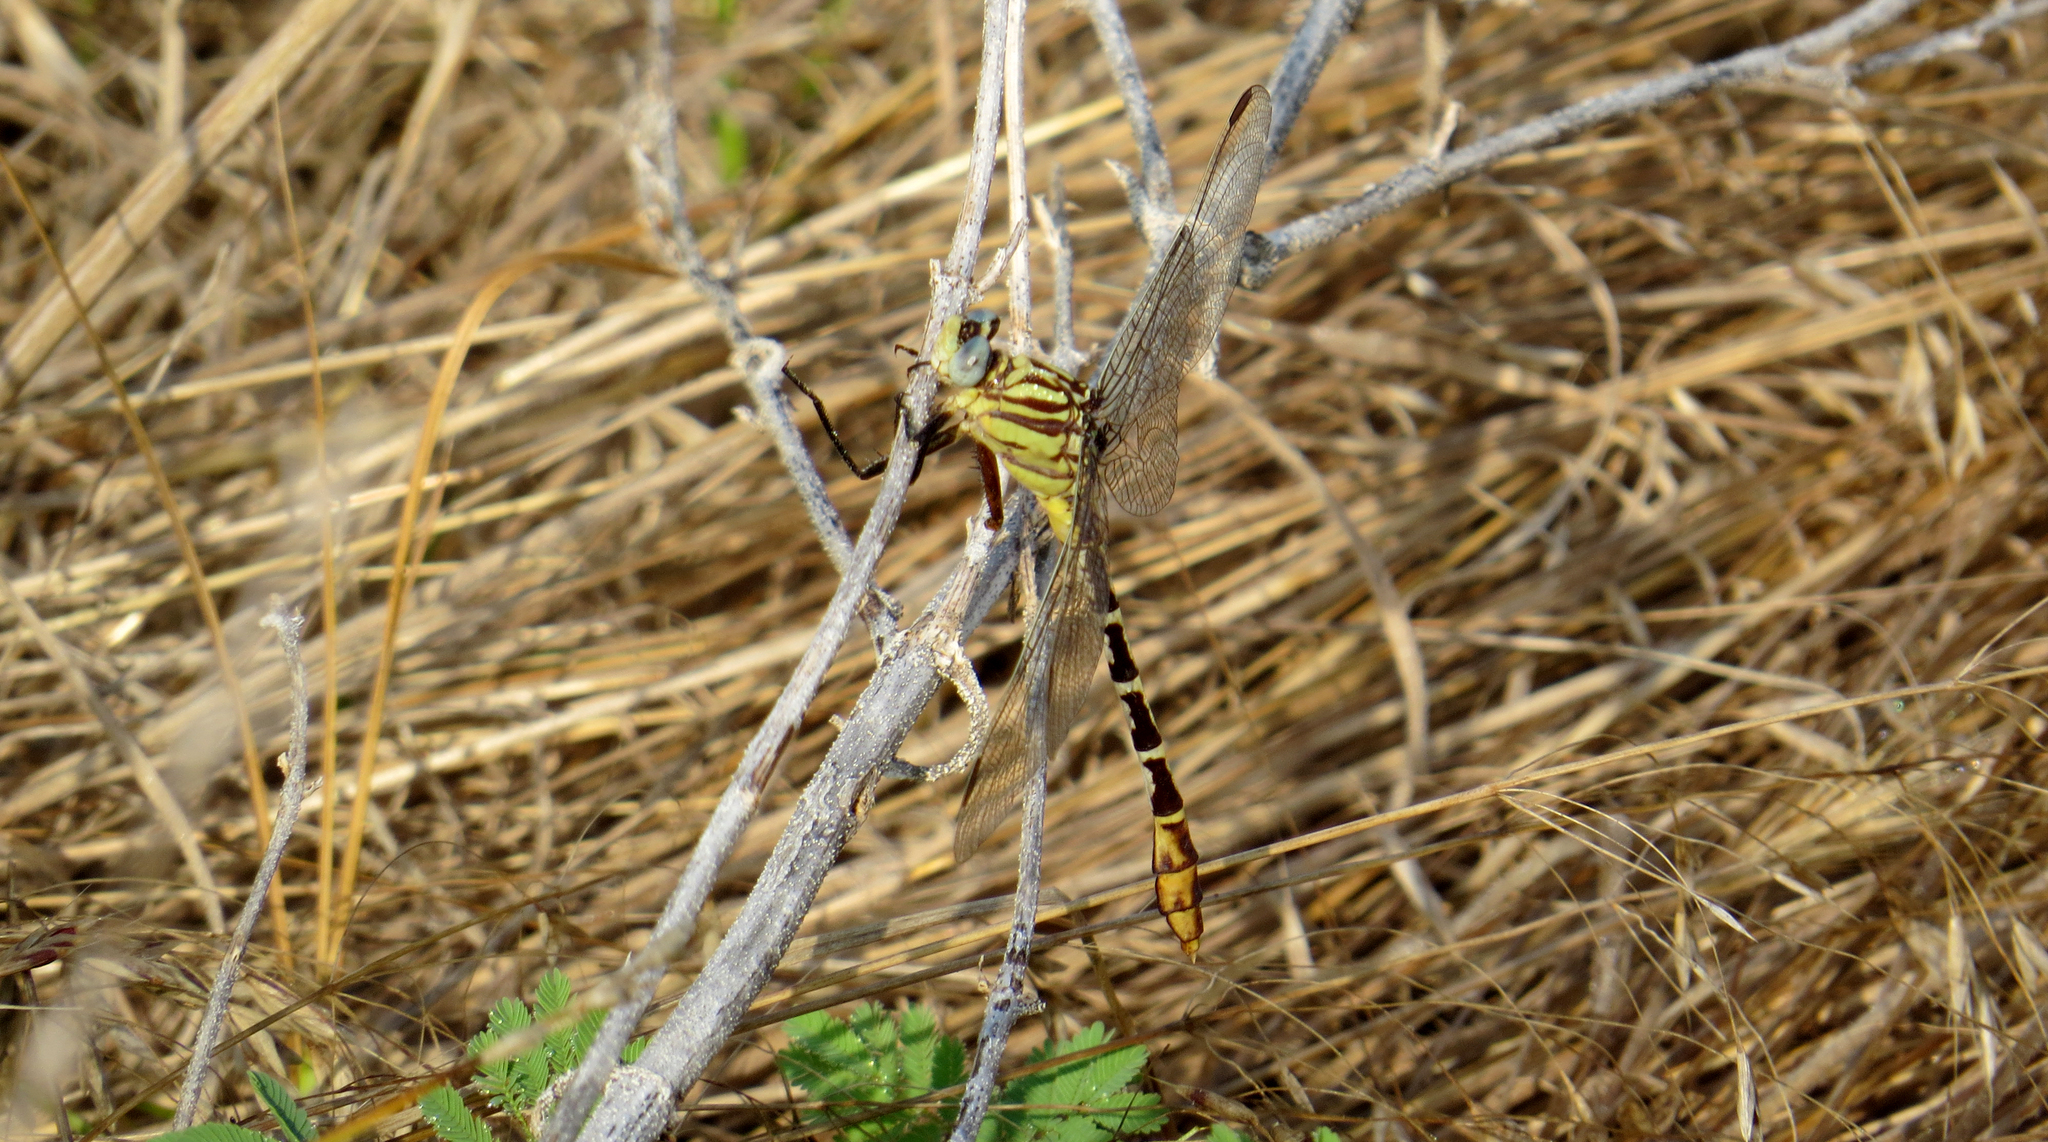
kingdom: Animalia
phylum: Arthropoda
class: Insecta
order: Odonata
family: Gomphidae
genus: Dromogomphus
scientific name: Dromogomphus spoliatus
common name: Flag-tailed spinyleg
